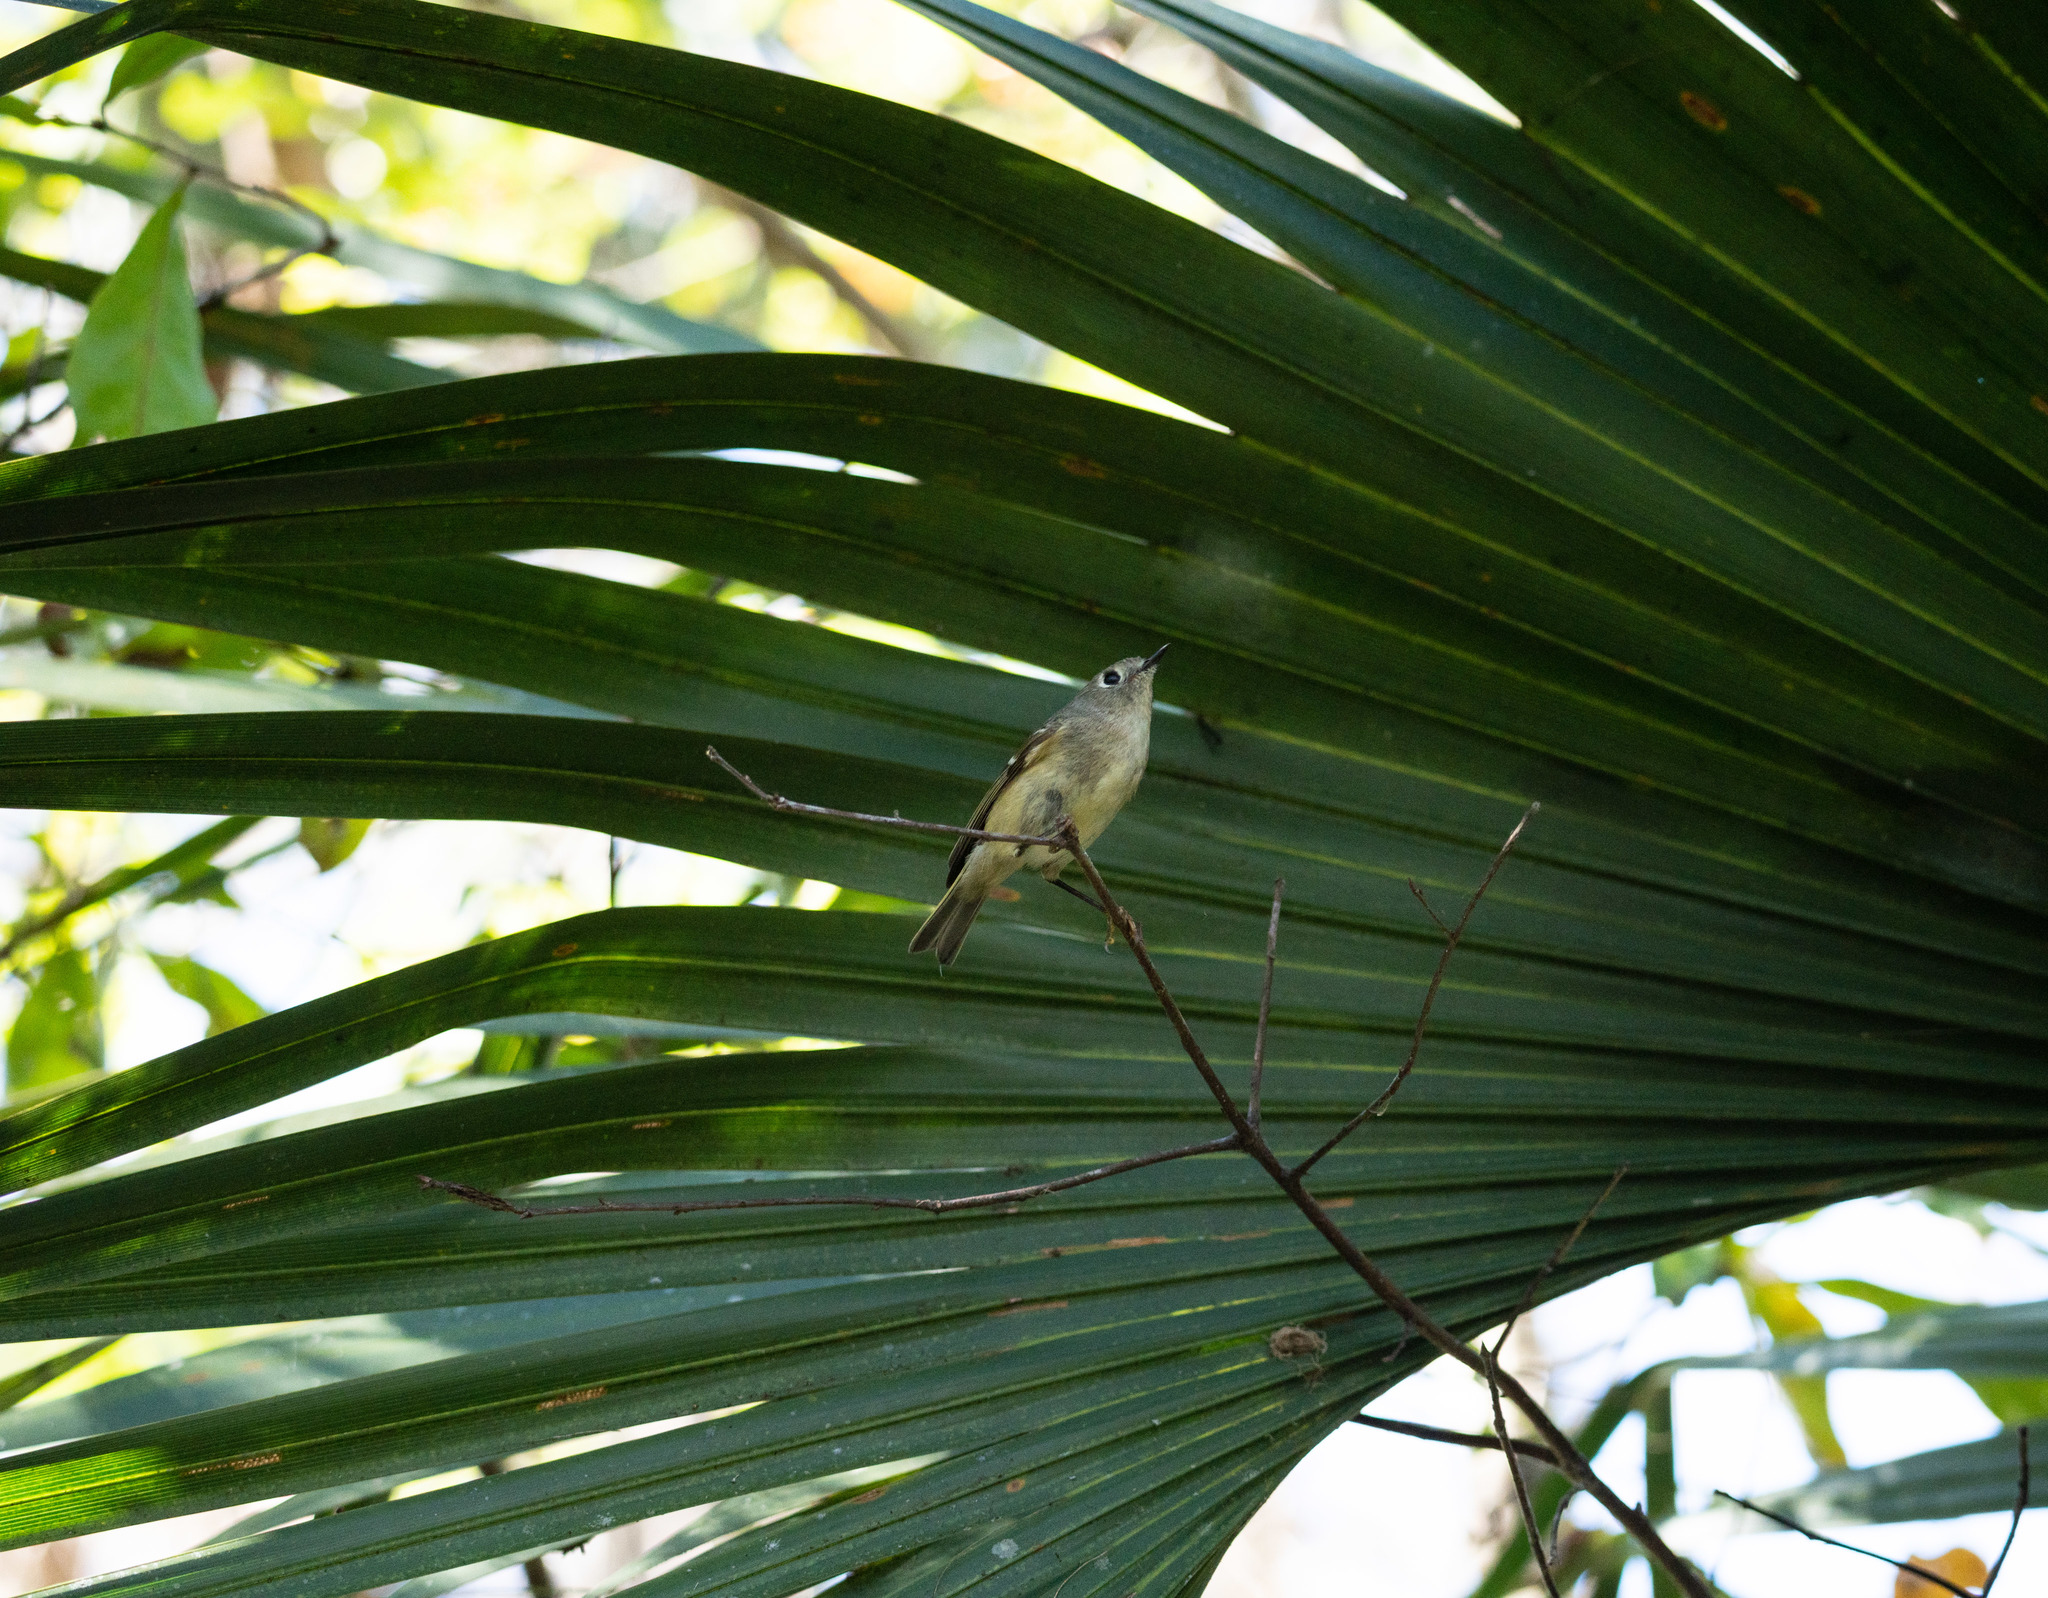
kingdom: Animalia
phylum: Chordata
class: Aves
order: Passeriformes
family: Regulidae
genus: Regulus
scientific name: Regulus calendula
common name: Ruby-crowned kinglet
